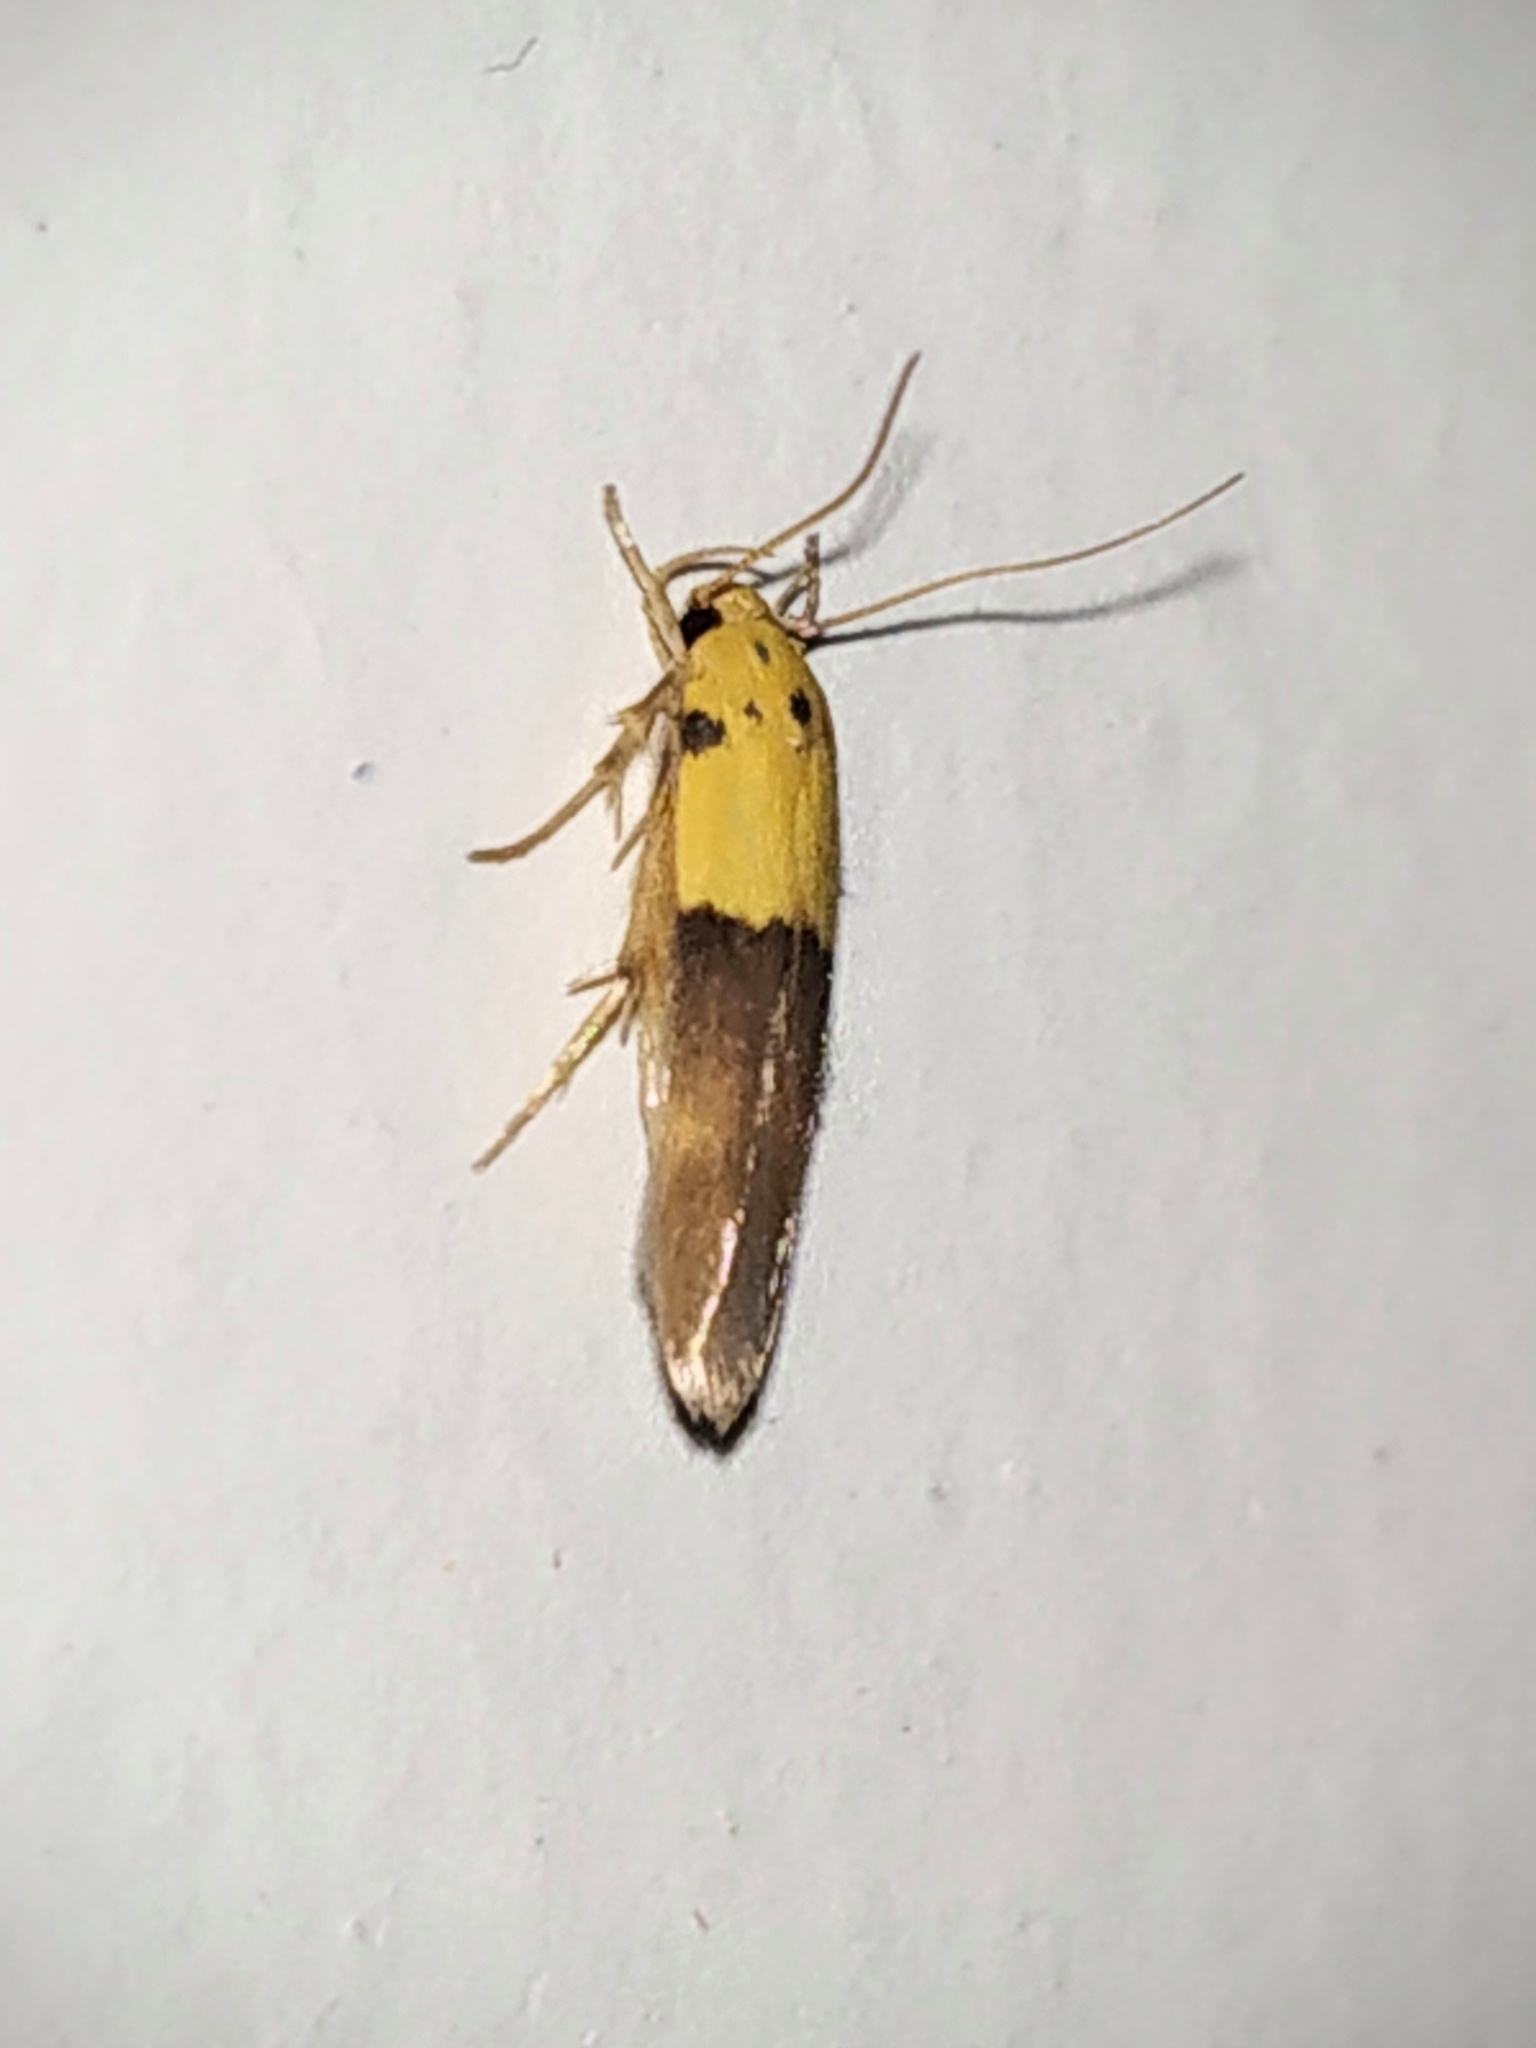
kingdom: Animalia
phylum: Arthropoda
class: Insecta
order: Lepidoptera
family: Stathmopodidae
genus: Stathmopoda
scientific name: Stathmopoda auriferella
